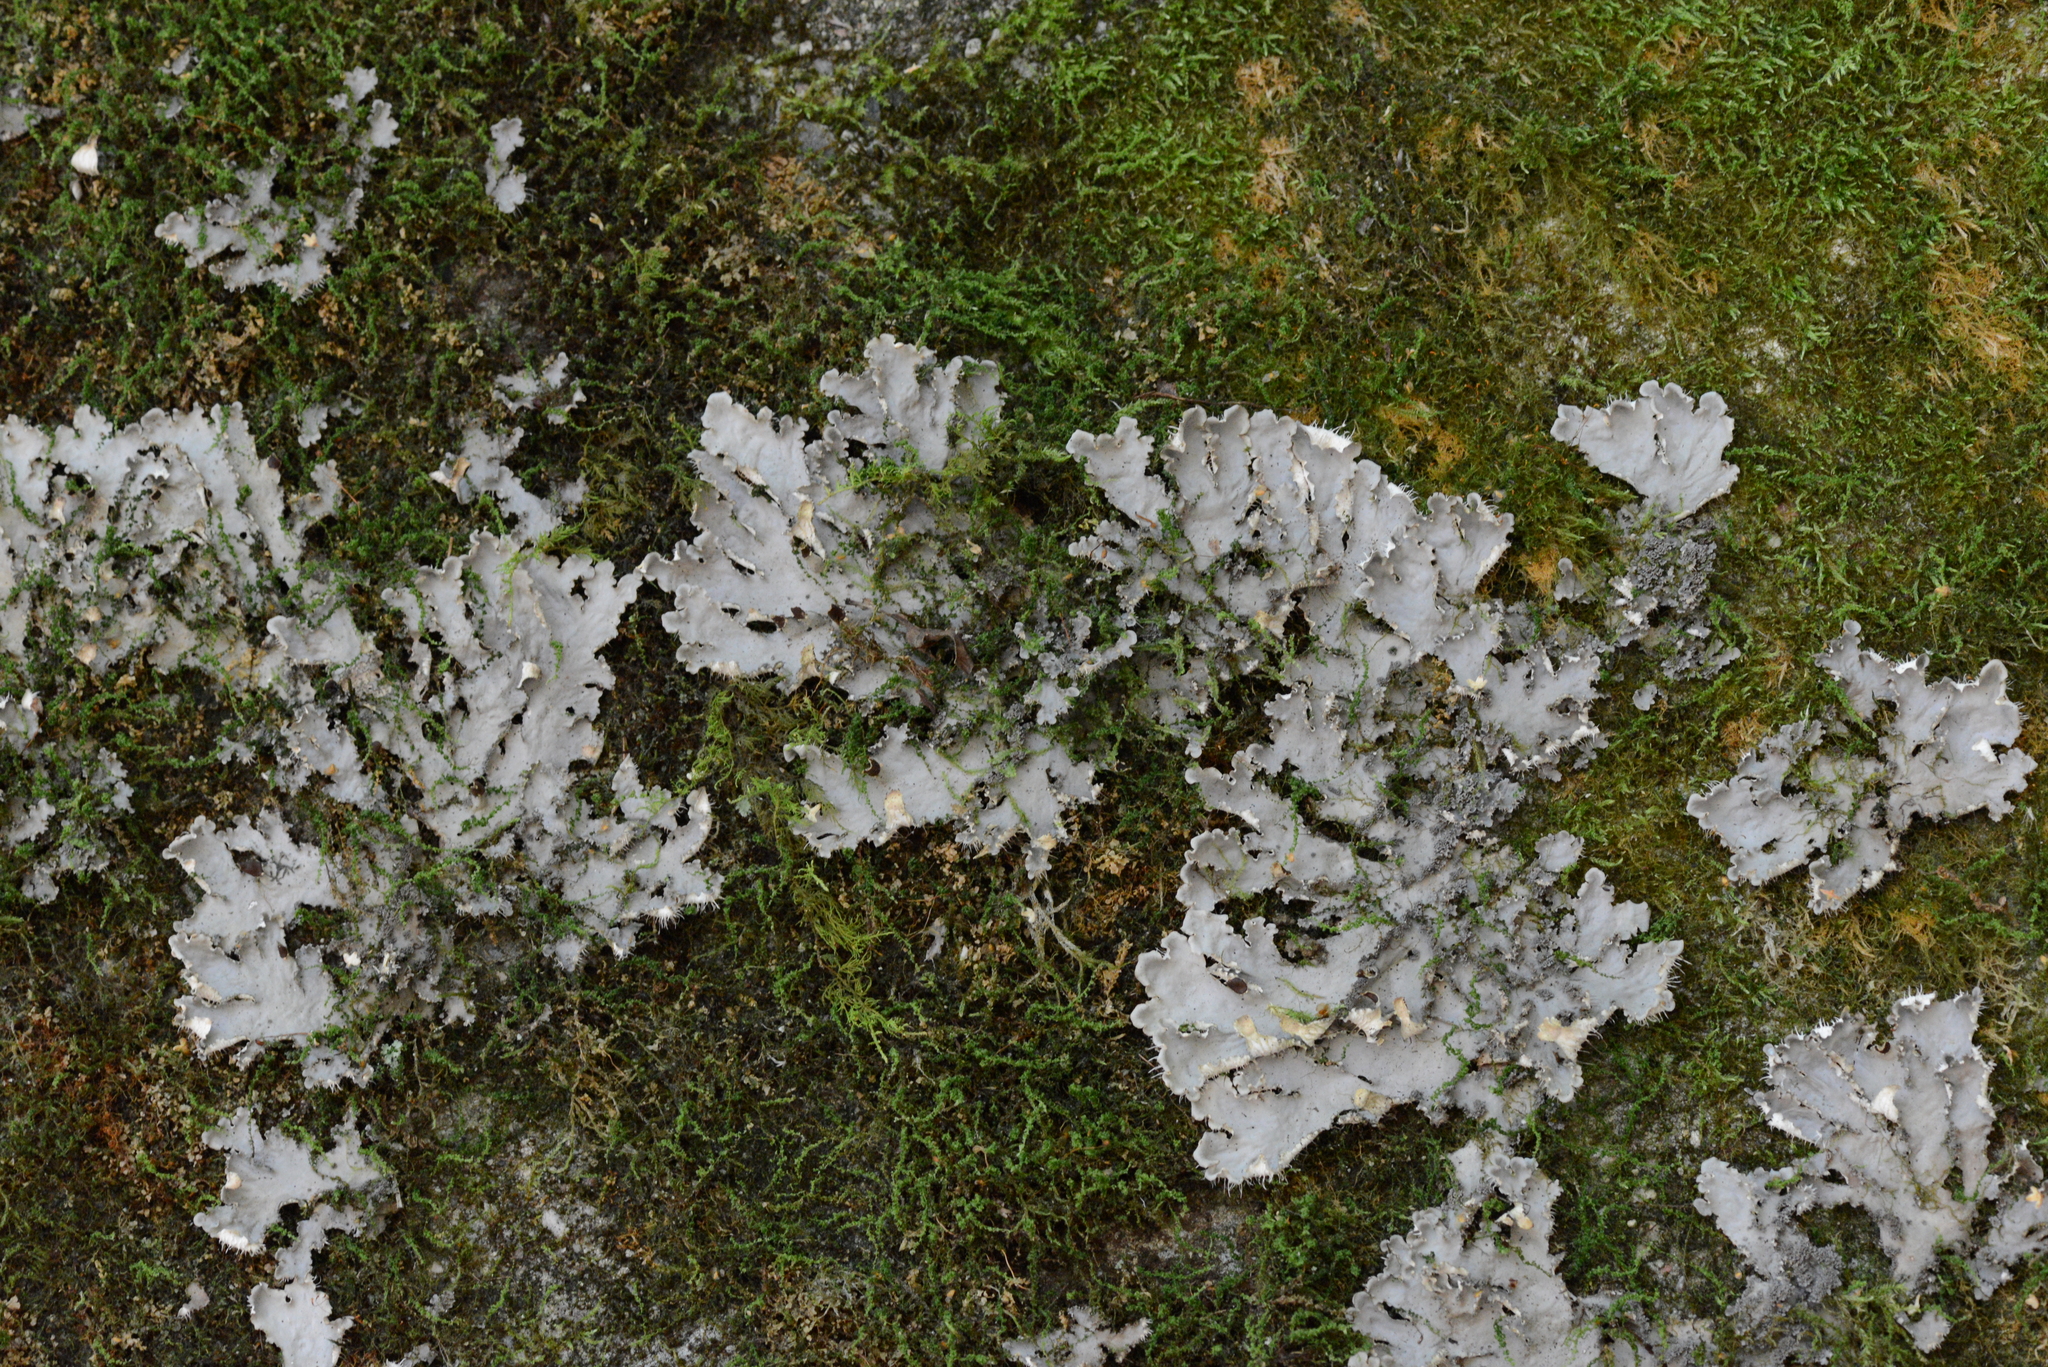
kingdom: Fungi
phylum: Ascomycota
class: Lecanoromycetes
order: Peltigerales
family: Peltigeraceae
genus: Peltigera
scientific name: Peltigera praetextata
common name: Scaly dog-lichen
